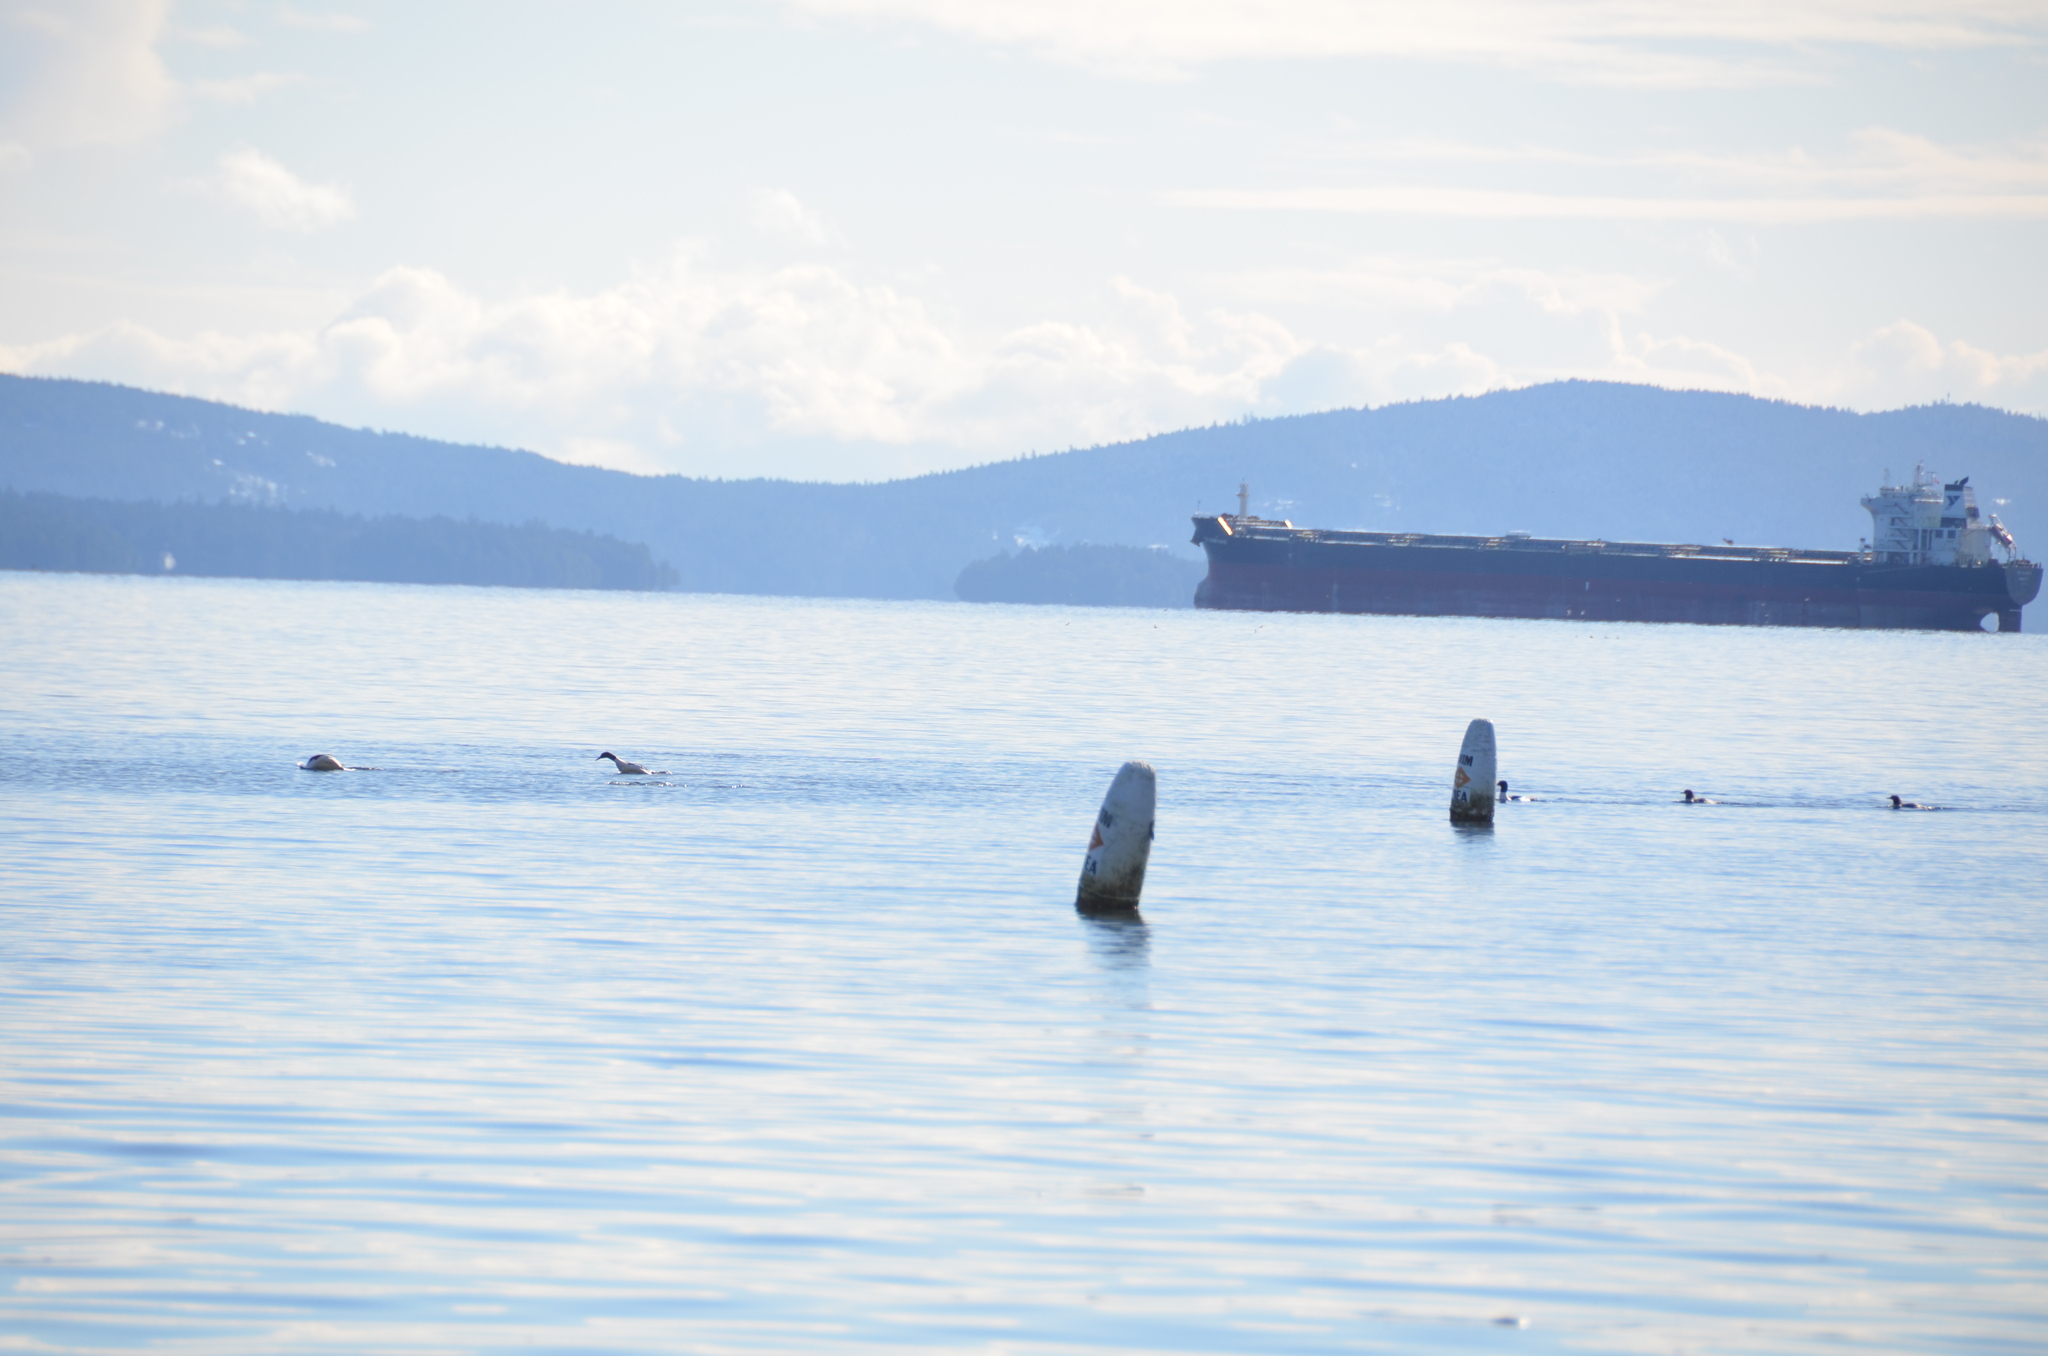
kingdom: Animalia
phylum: Chordata
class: Aves
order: Anseriformes
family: Anatidae
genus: Mergus
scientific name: Mergus merganser
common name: Common merganser
